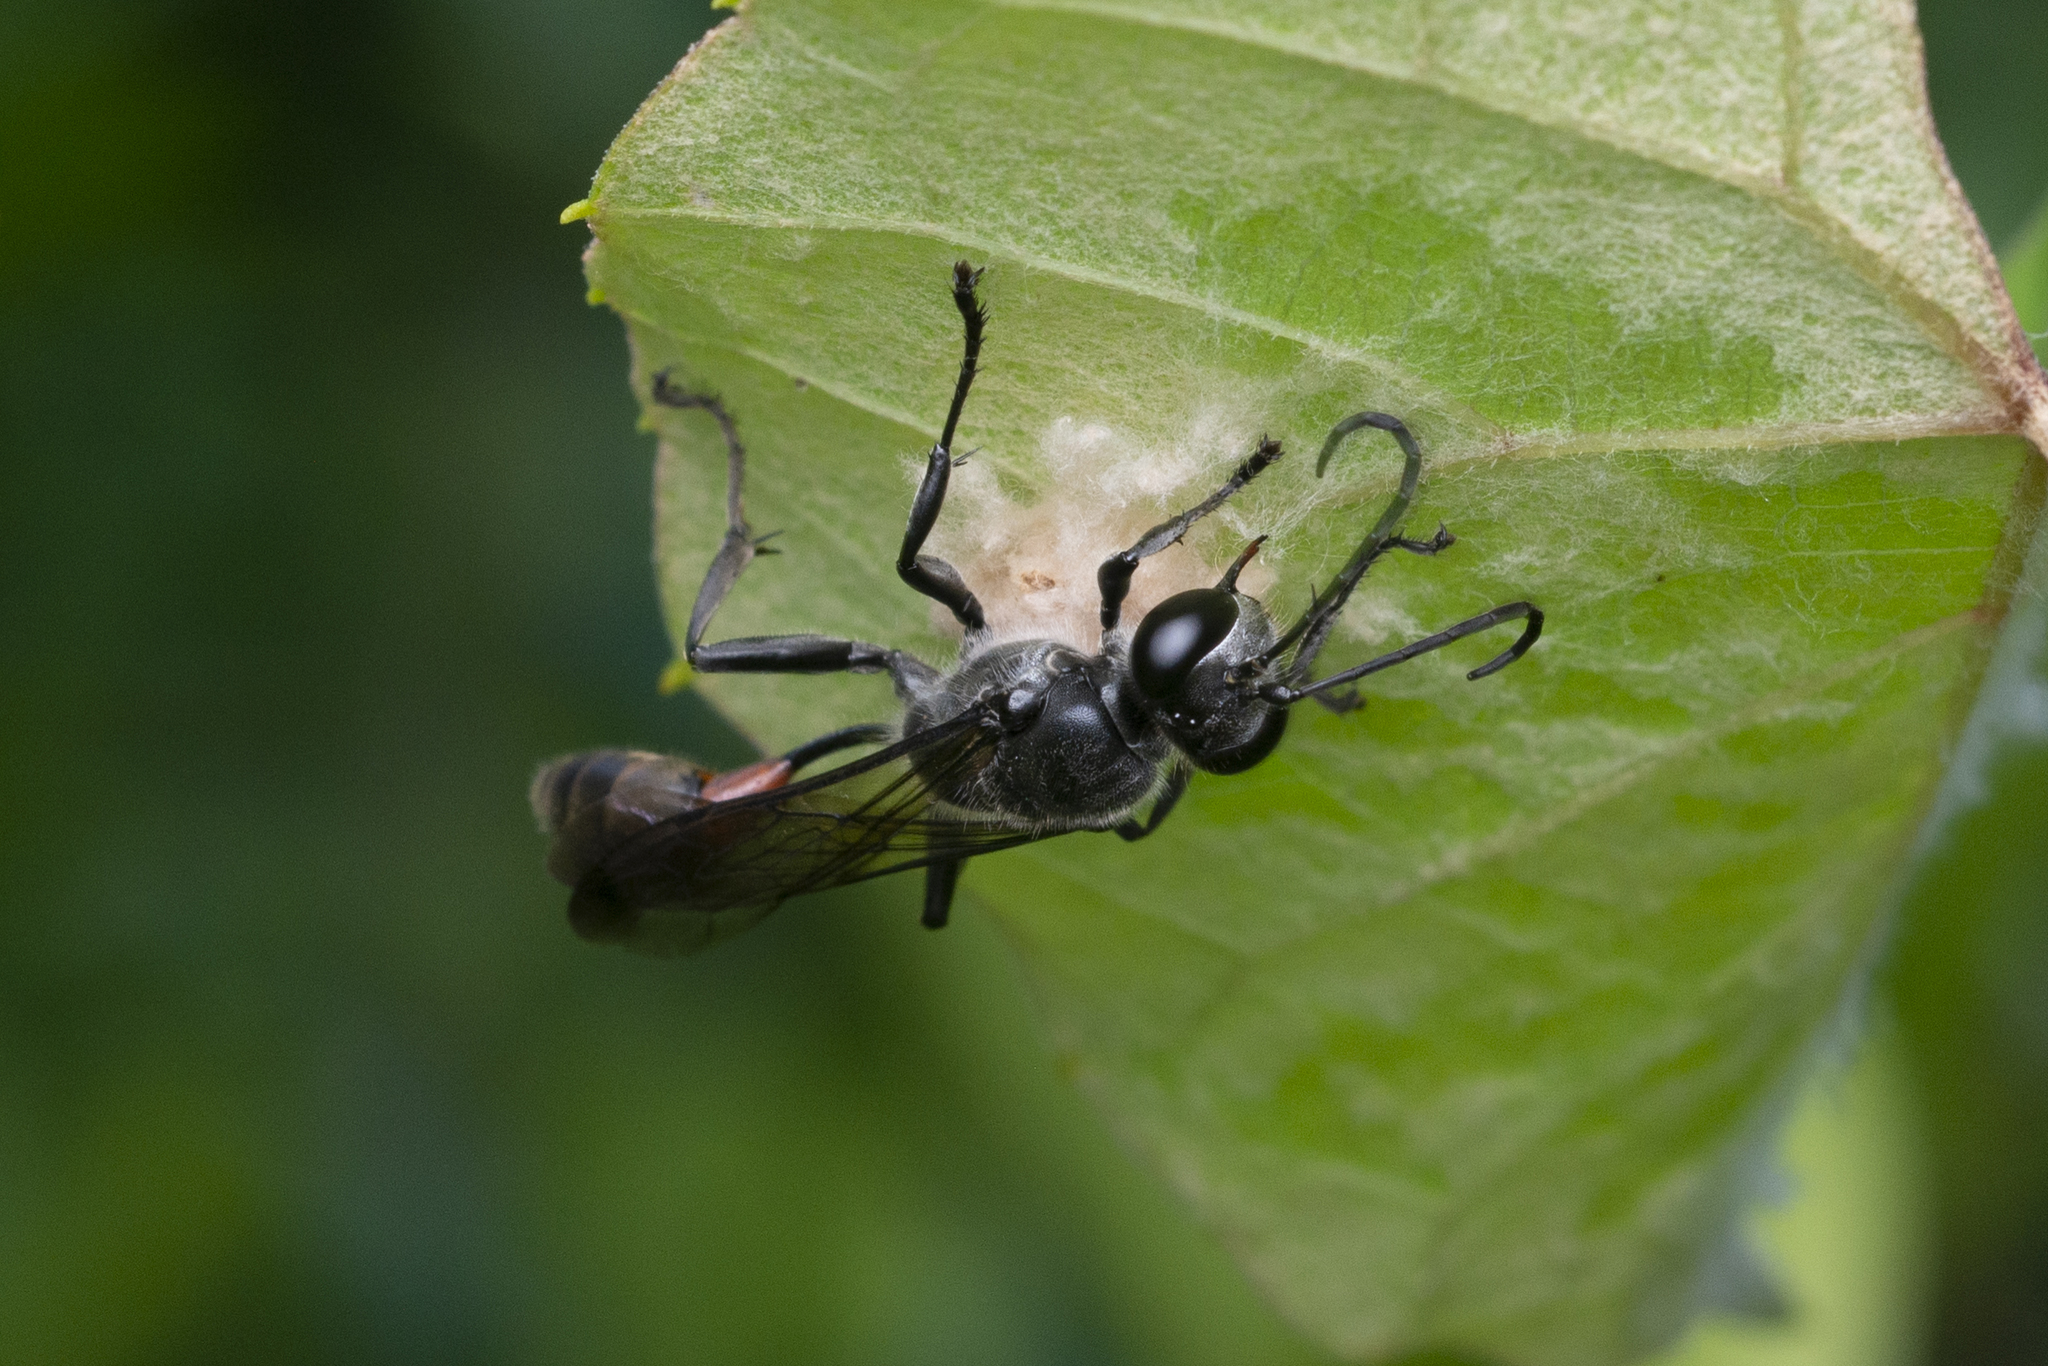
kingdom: Animalia
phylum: Arthropoda
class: Insecta
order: Hymenoptera
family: Sphecidae
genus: Isodontia
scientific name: Isodontia diodon
